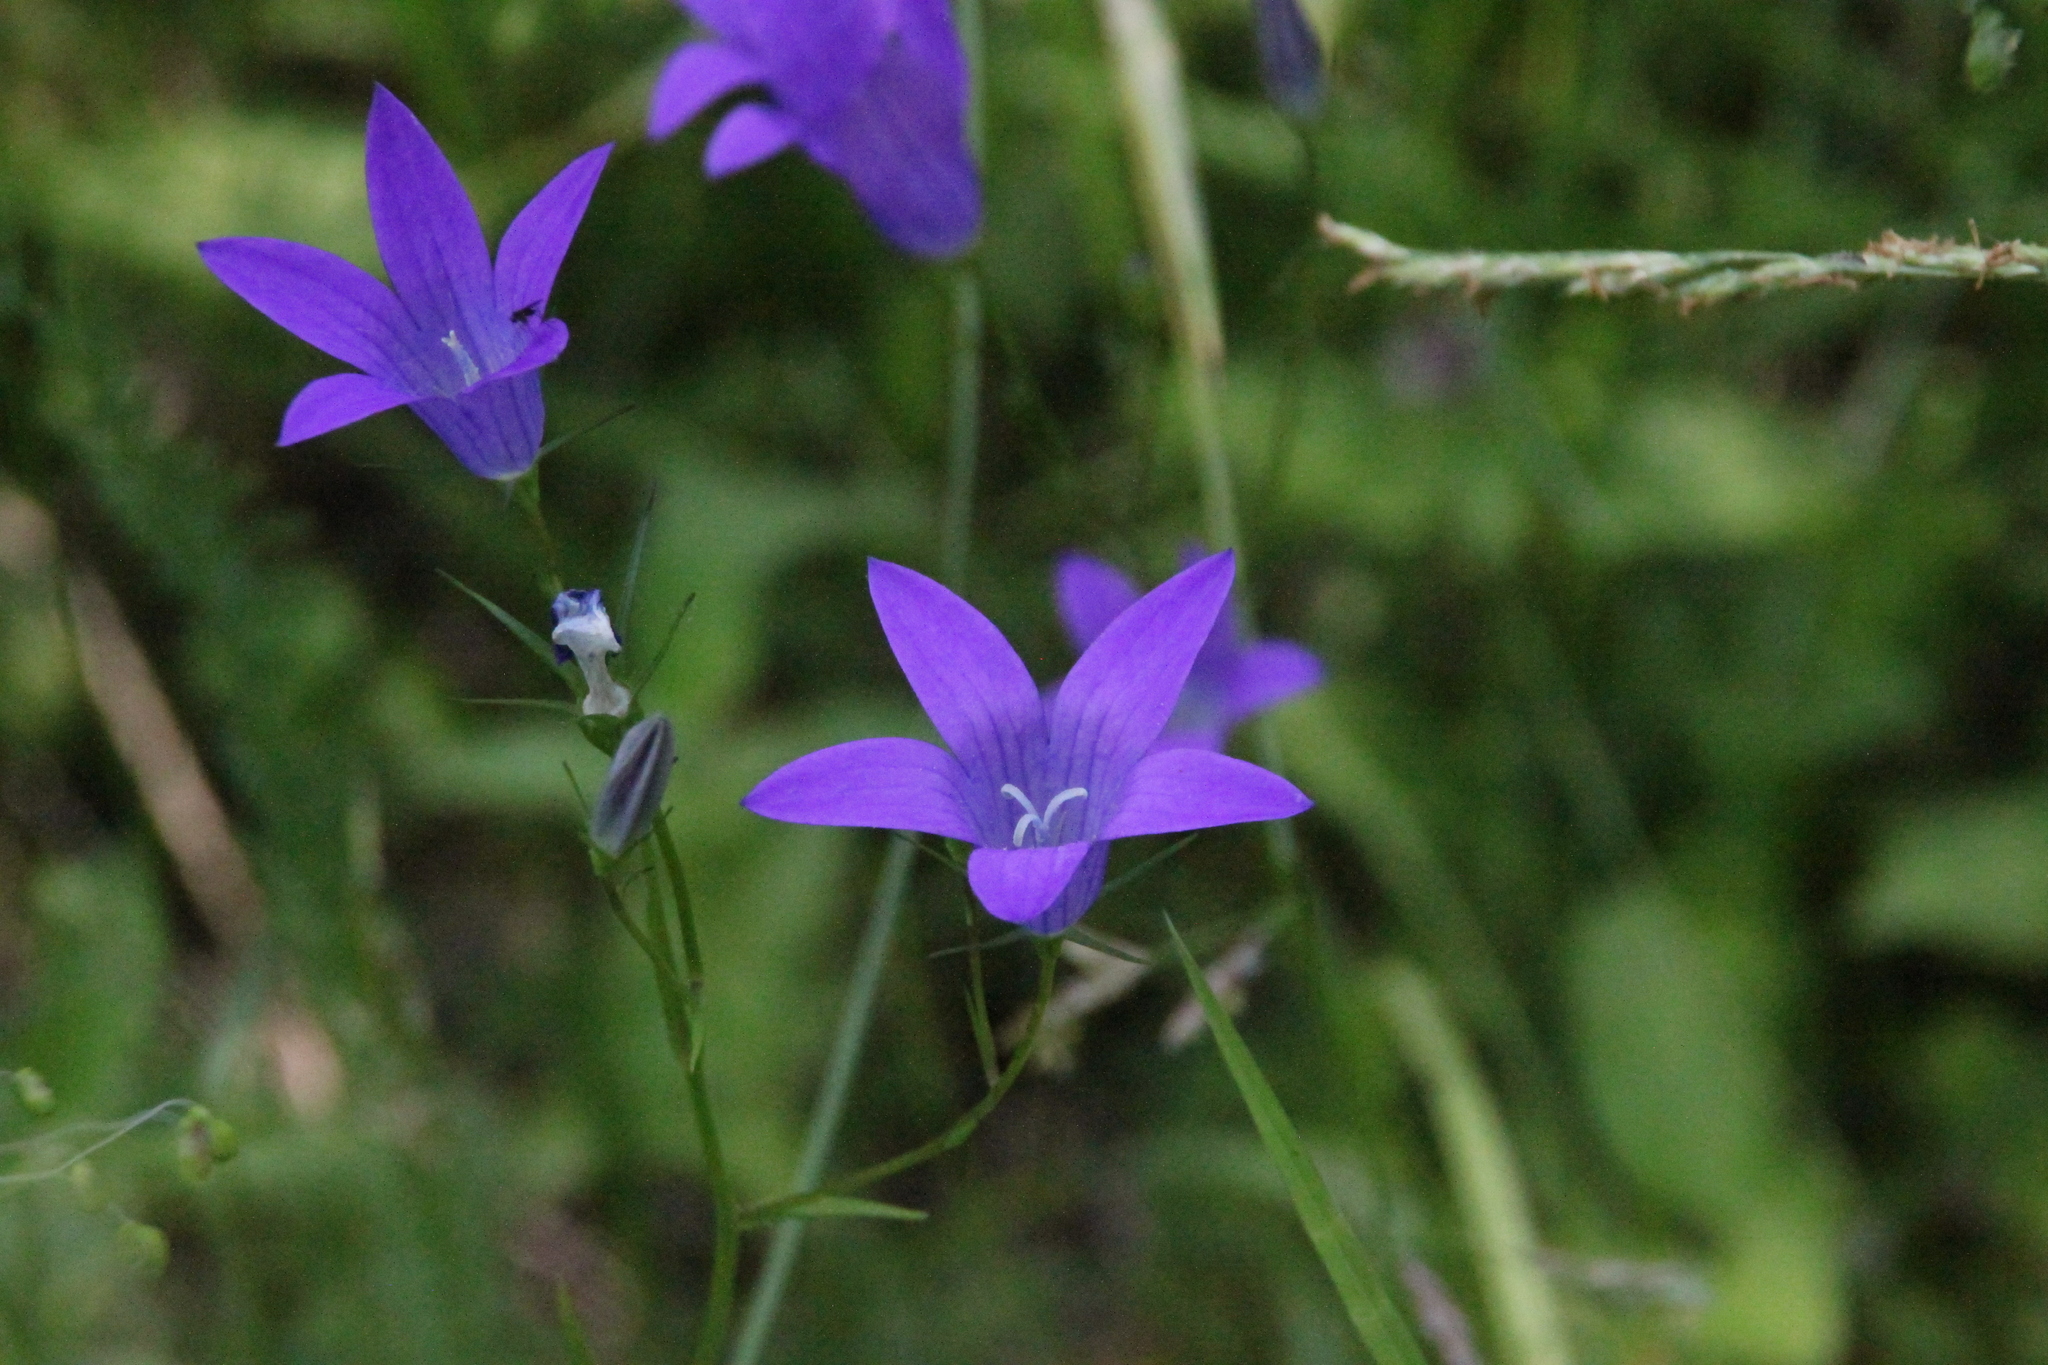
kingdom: Plantae
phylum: Tracheophyta
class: Magnoliopsida
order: Asterales
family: Campanulaceae
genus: Campanula
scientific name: Campanula patula
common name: Spreading bellflower
